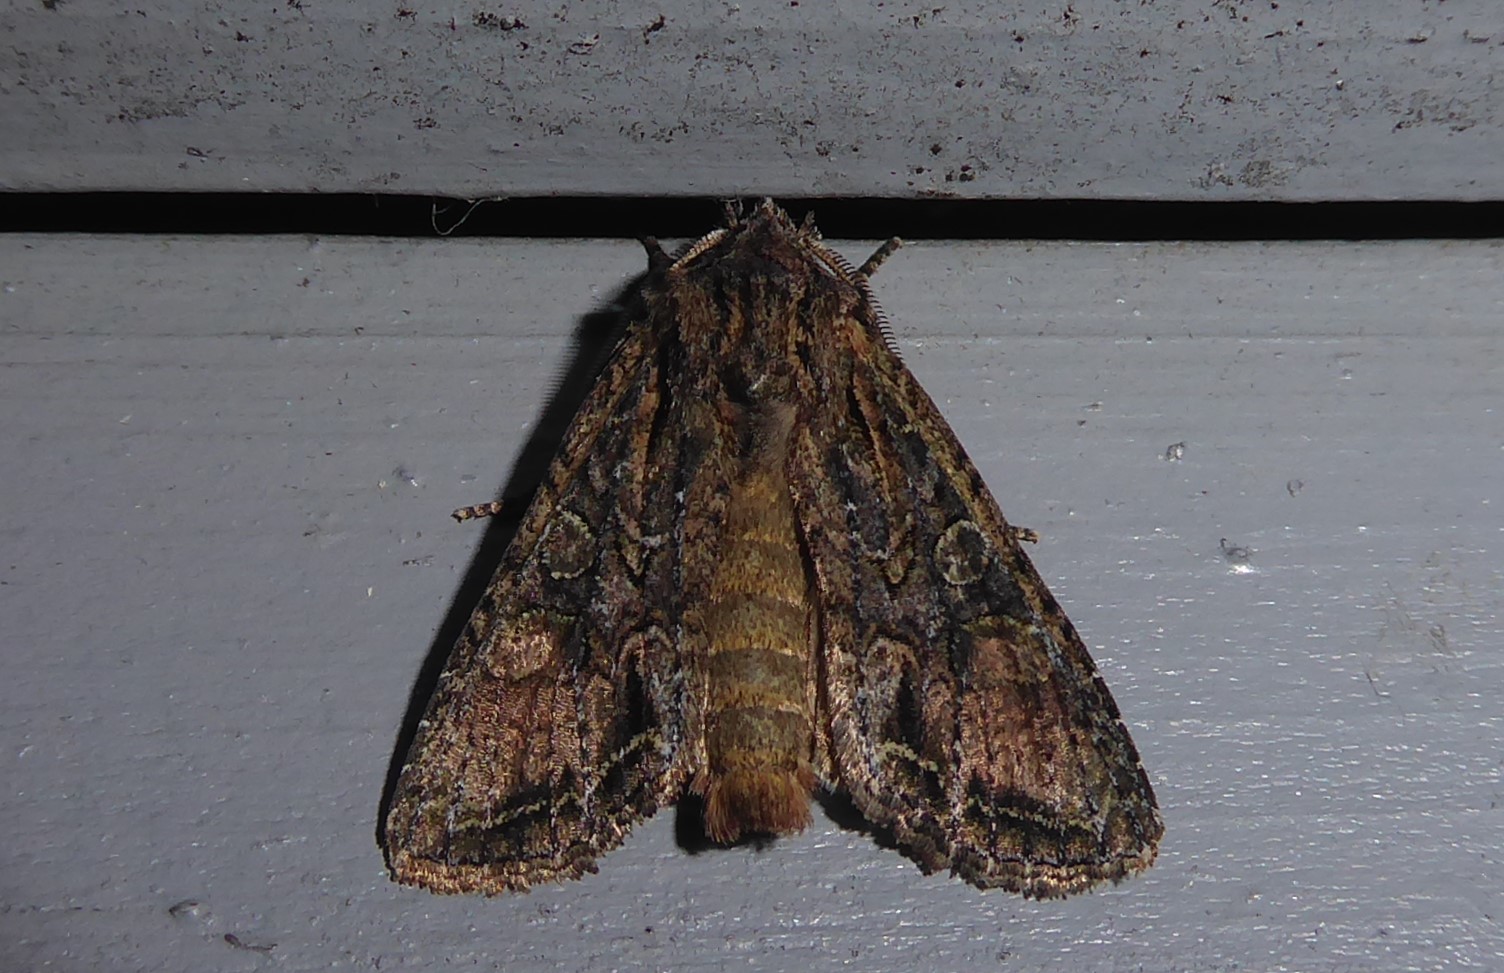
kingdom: Animalia
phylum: Arthropoda
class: Insecta
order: Lepidoptera
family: Noctuidae
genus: Ichneutica
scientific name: Ichneutica mutans
